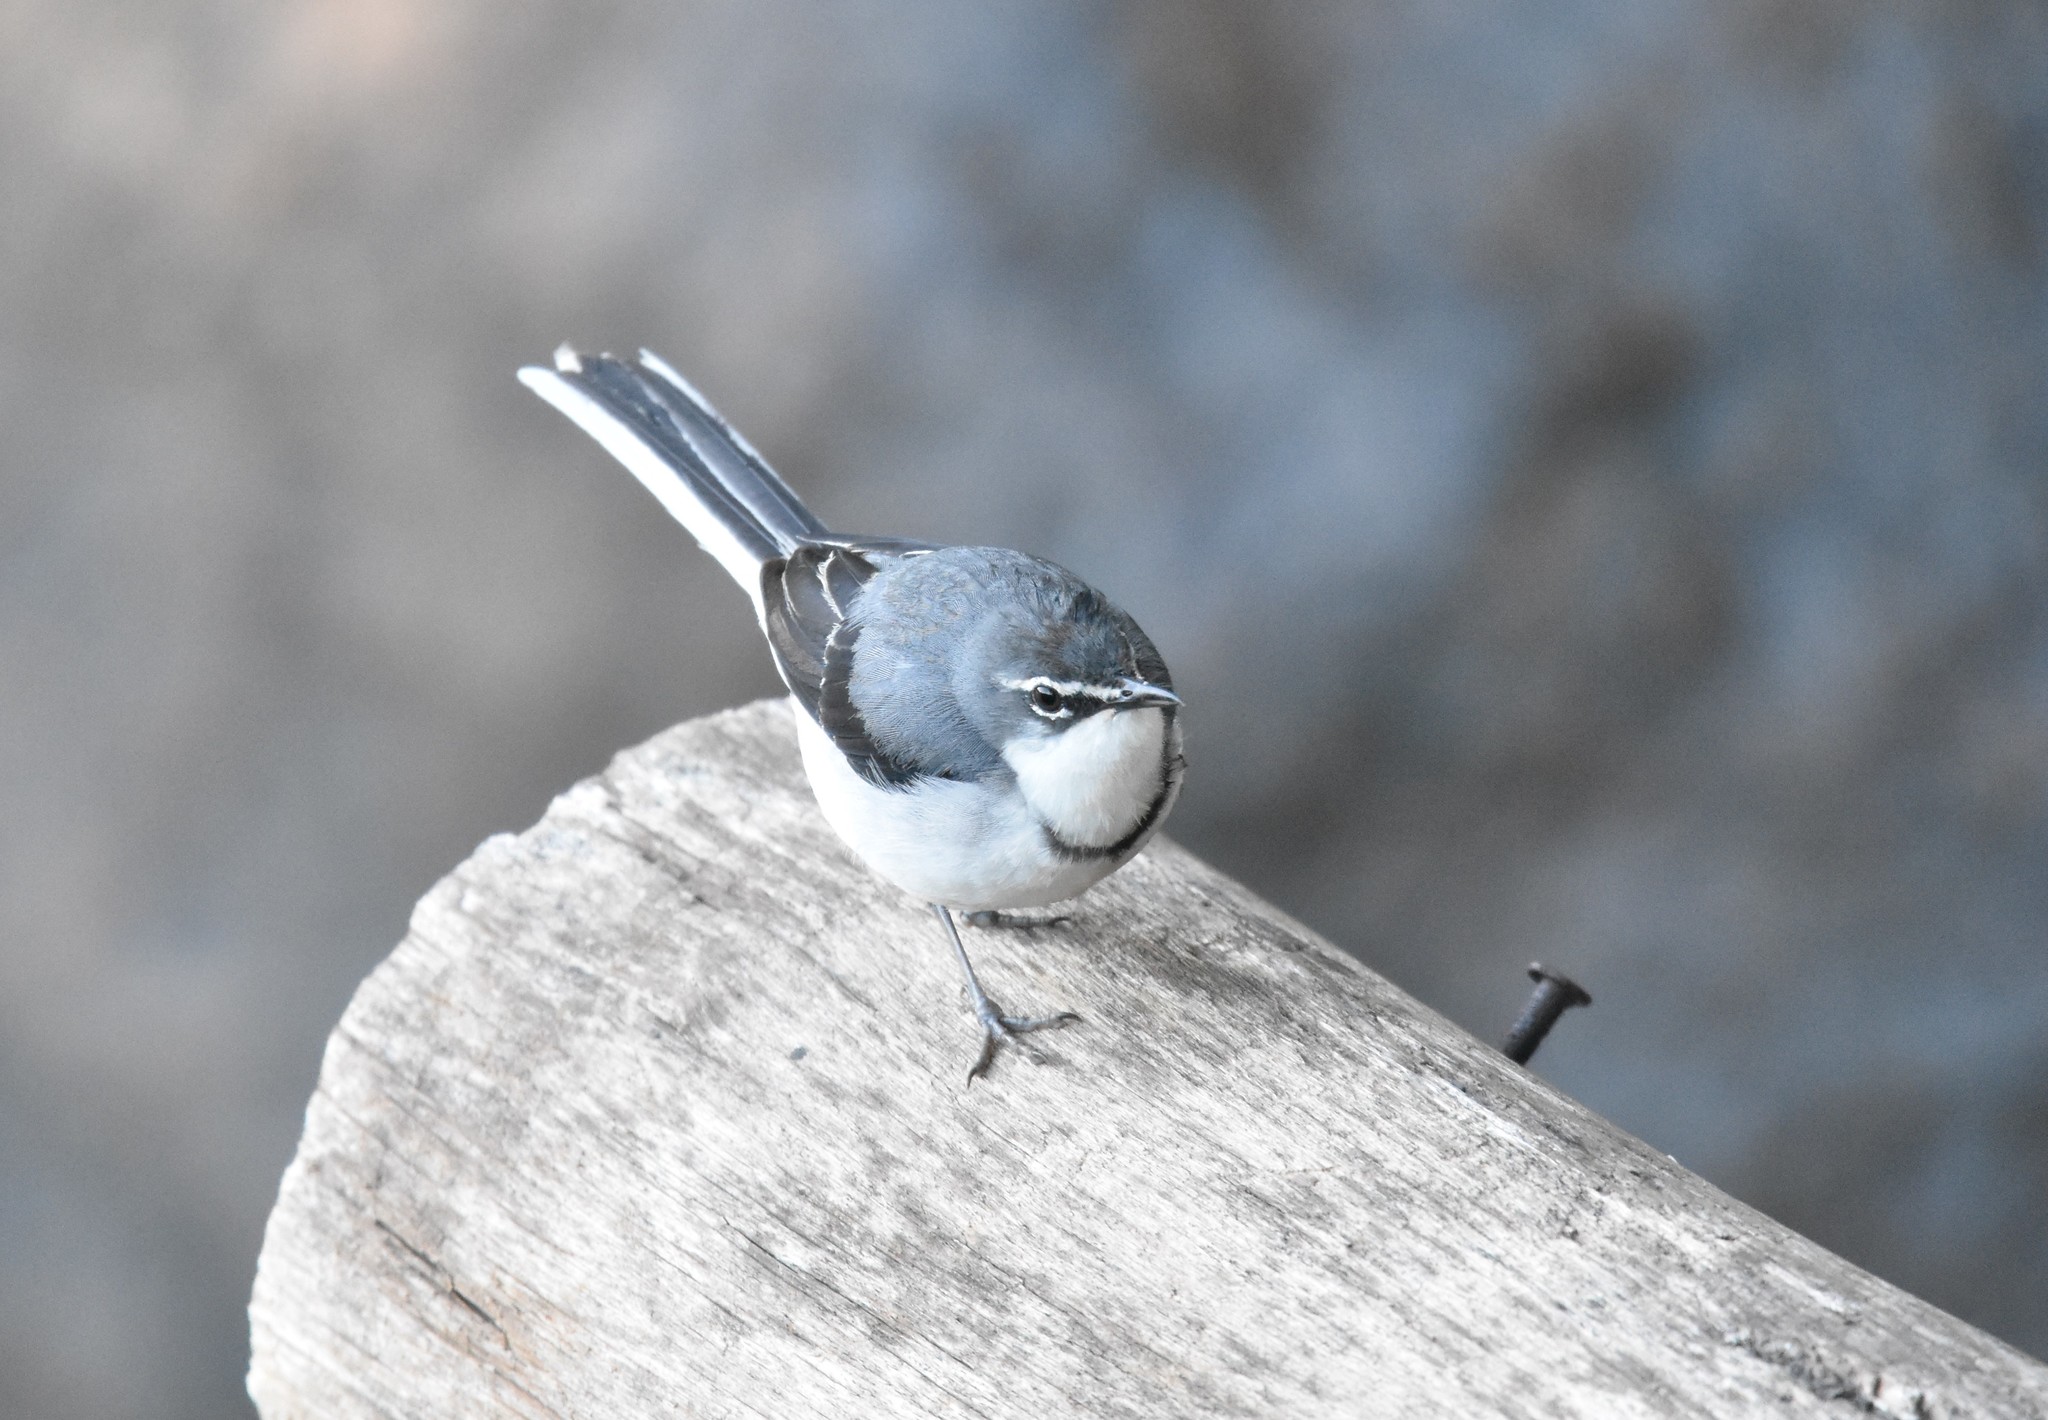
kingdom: Animalia
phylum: Chordata
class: Aves
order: Passeriformes
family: Motacillidae
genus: Motacilla
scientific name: Motacilla clara
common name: Mountain wagtail
